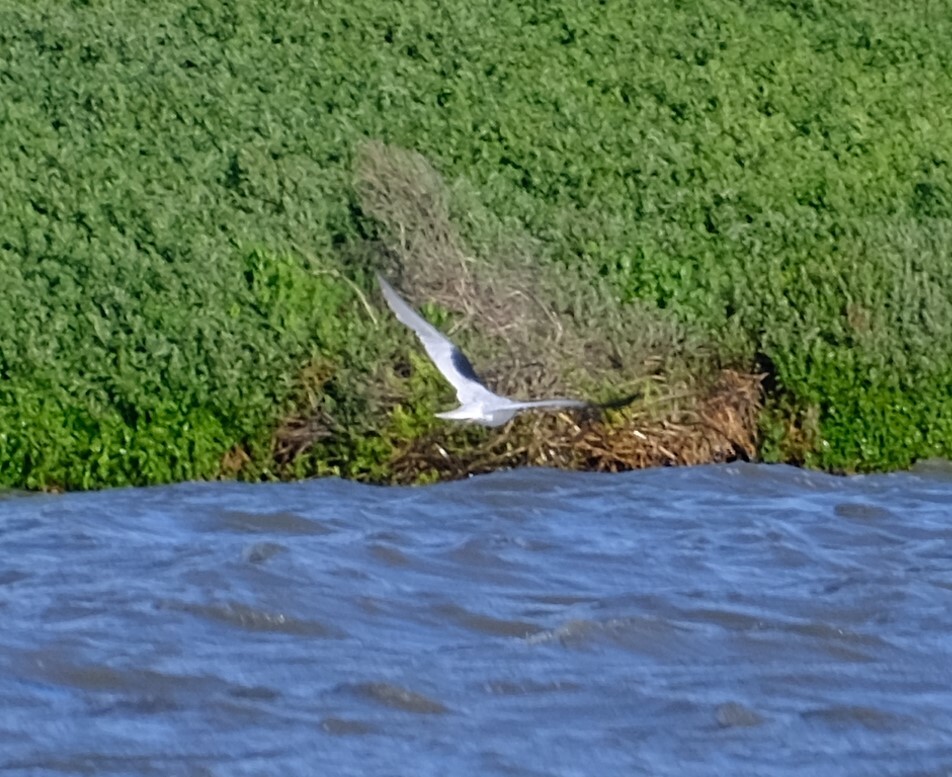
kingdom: Animalia
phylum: Chordata
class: Aves
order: Accipitriformes
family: Accipitridae
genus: Elanus
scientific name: Elanus axillaris
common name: Black-shouldered kite
